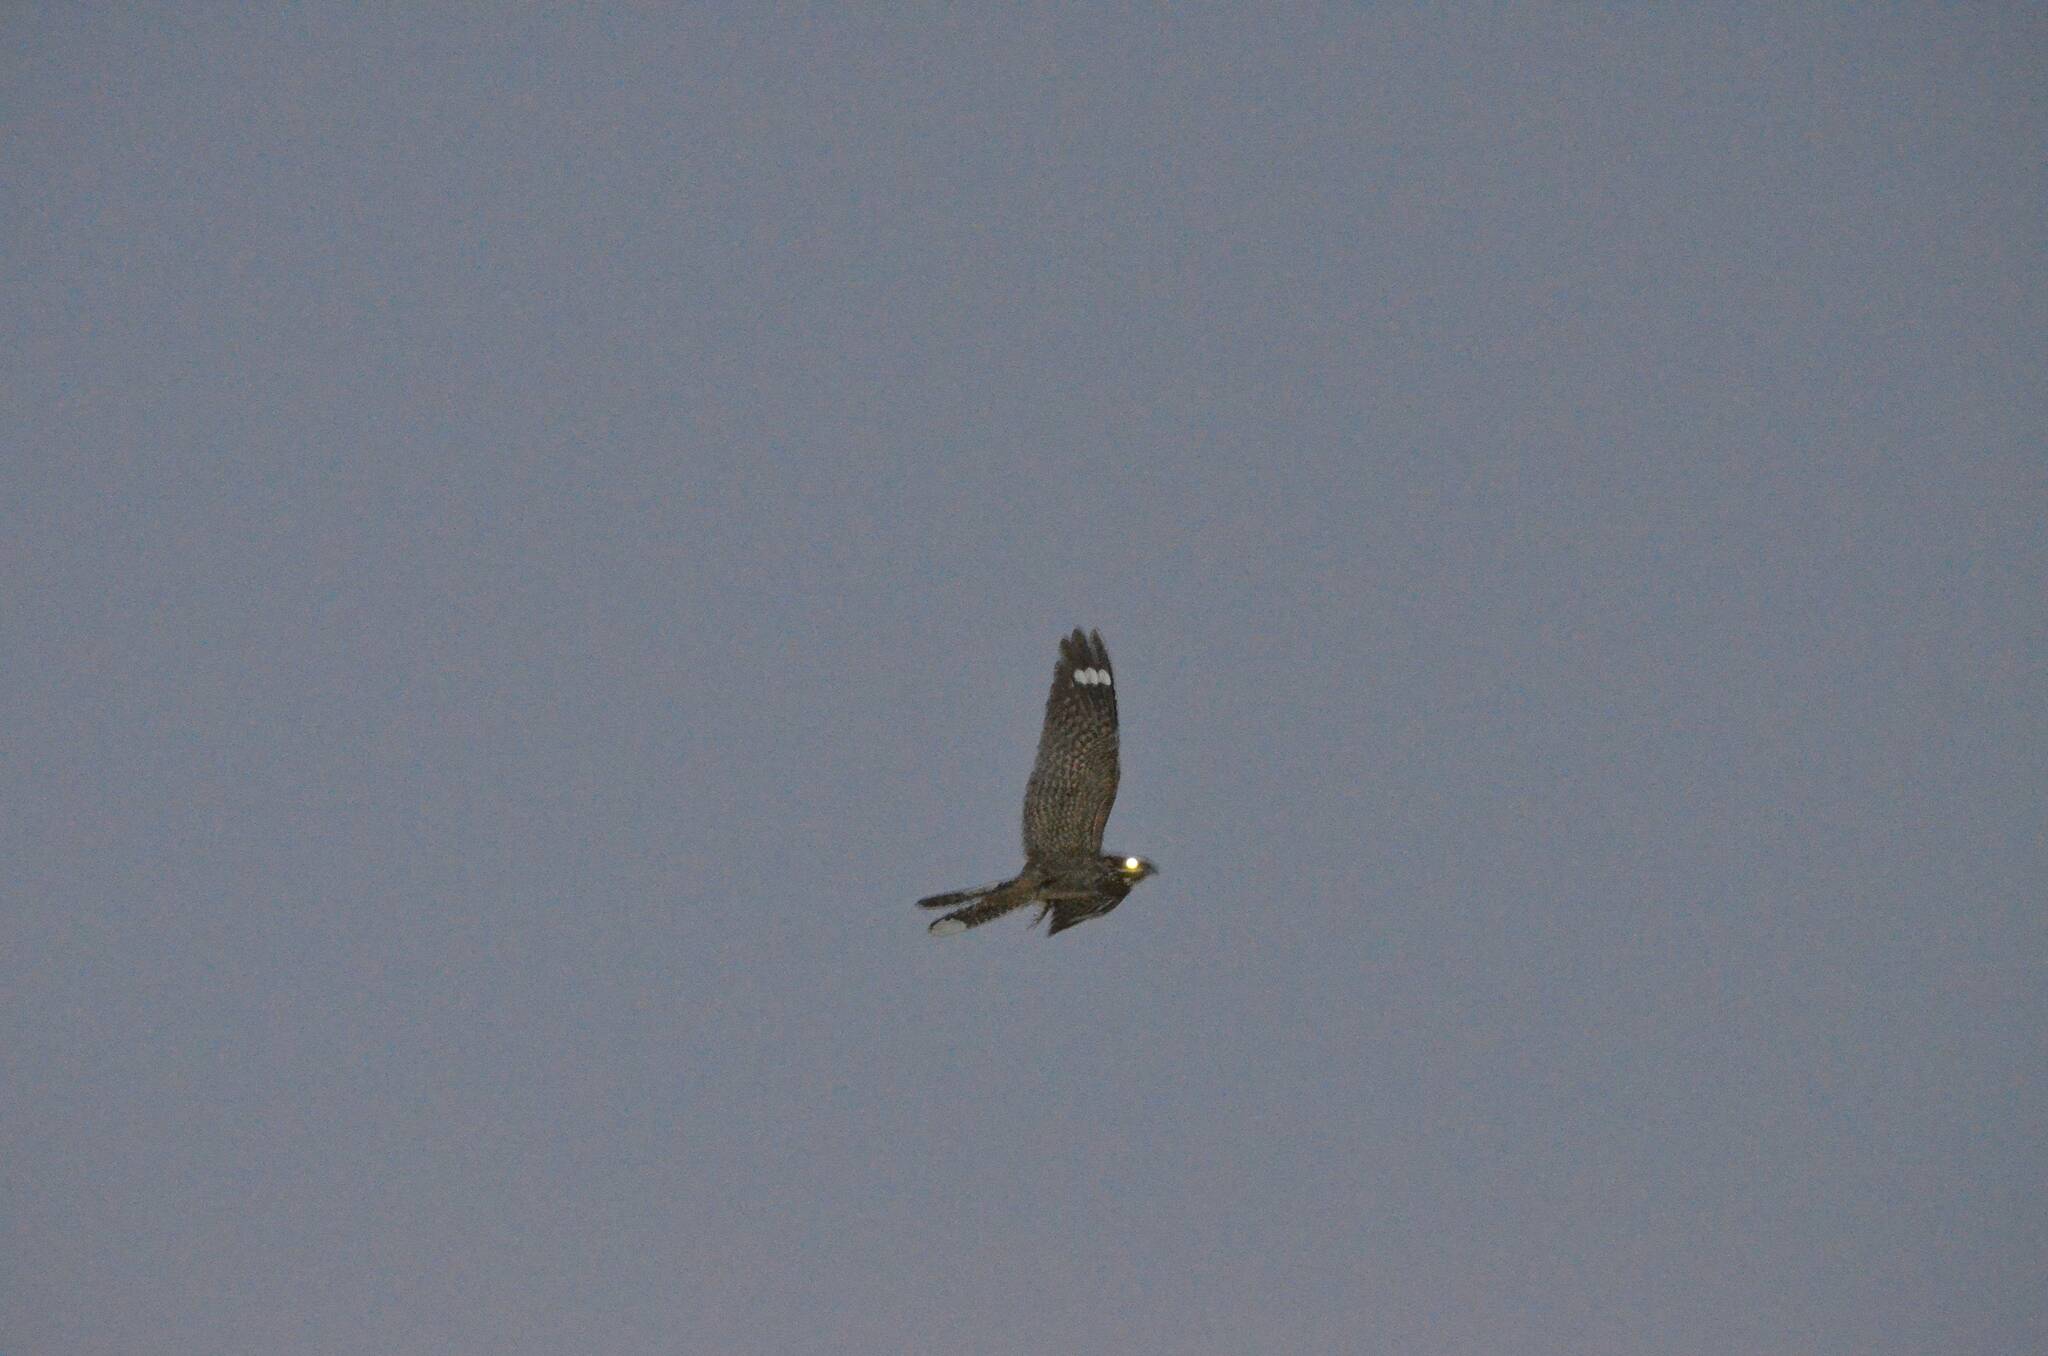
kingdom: Animalia
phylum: Chordata
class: Aves
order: Caprimulgiformes
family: Caprimulgidae
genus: Caprimulgus
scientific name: Caprimulgus europaeus
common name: European nightjar
